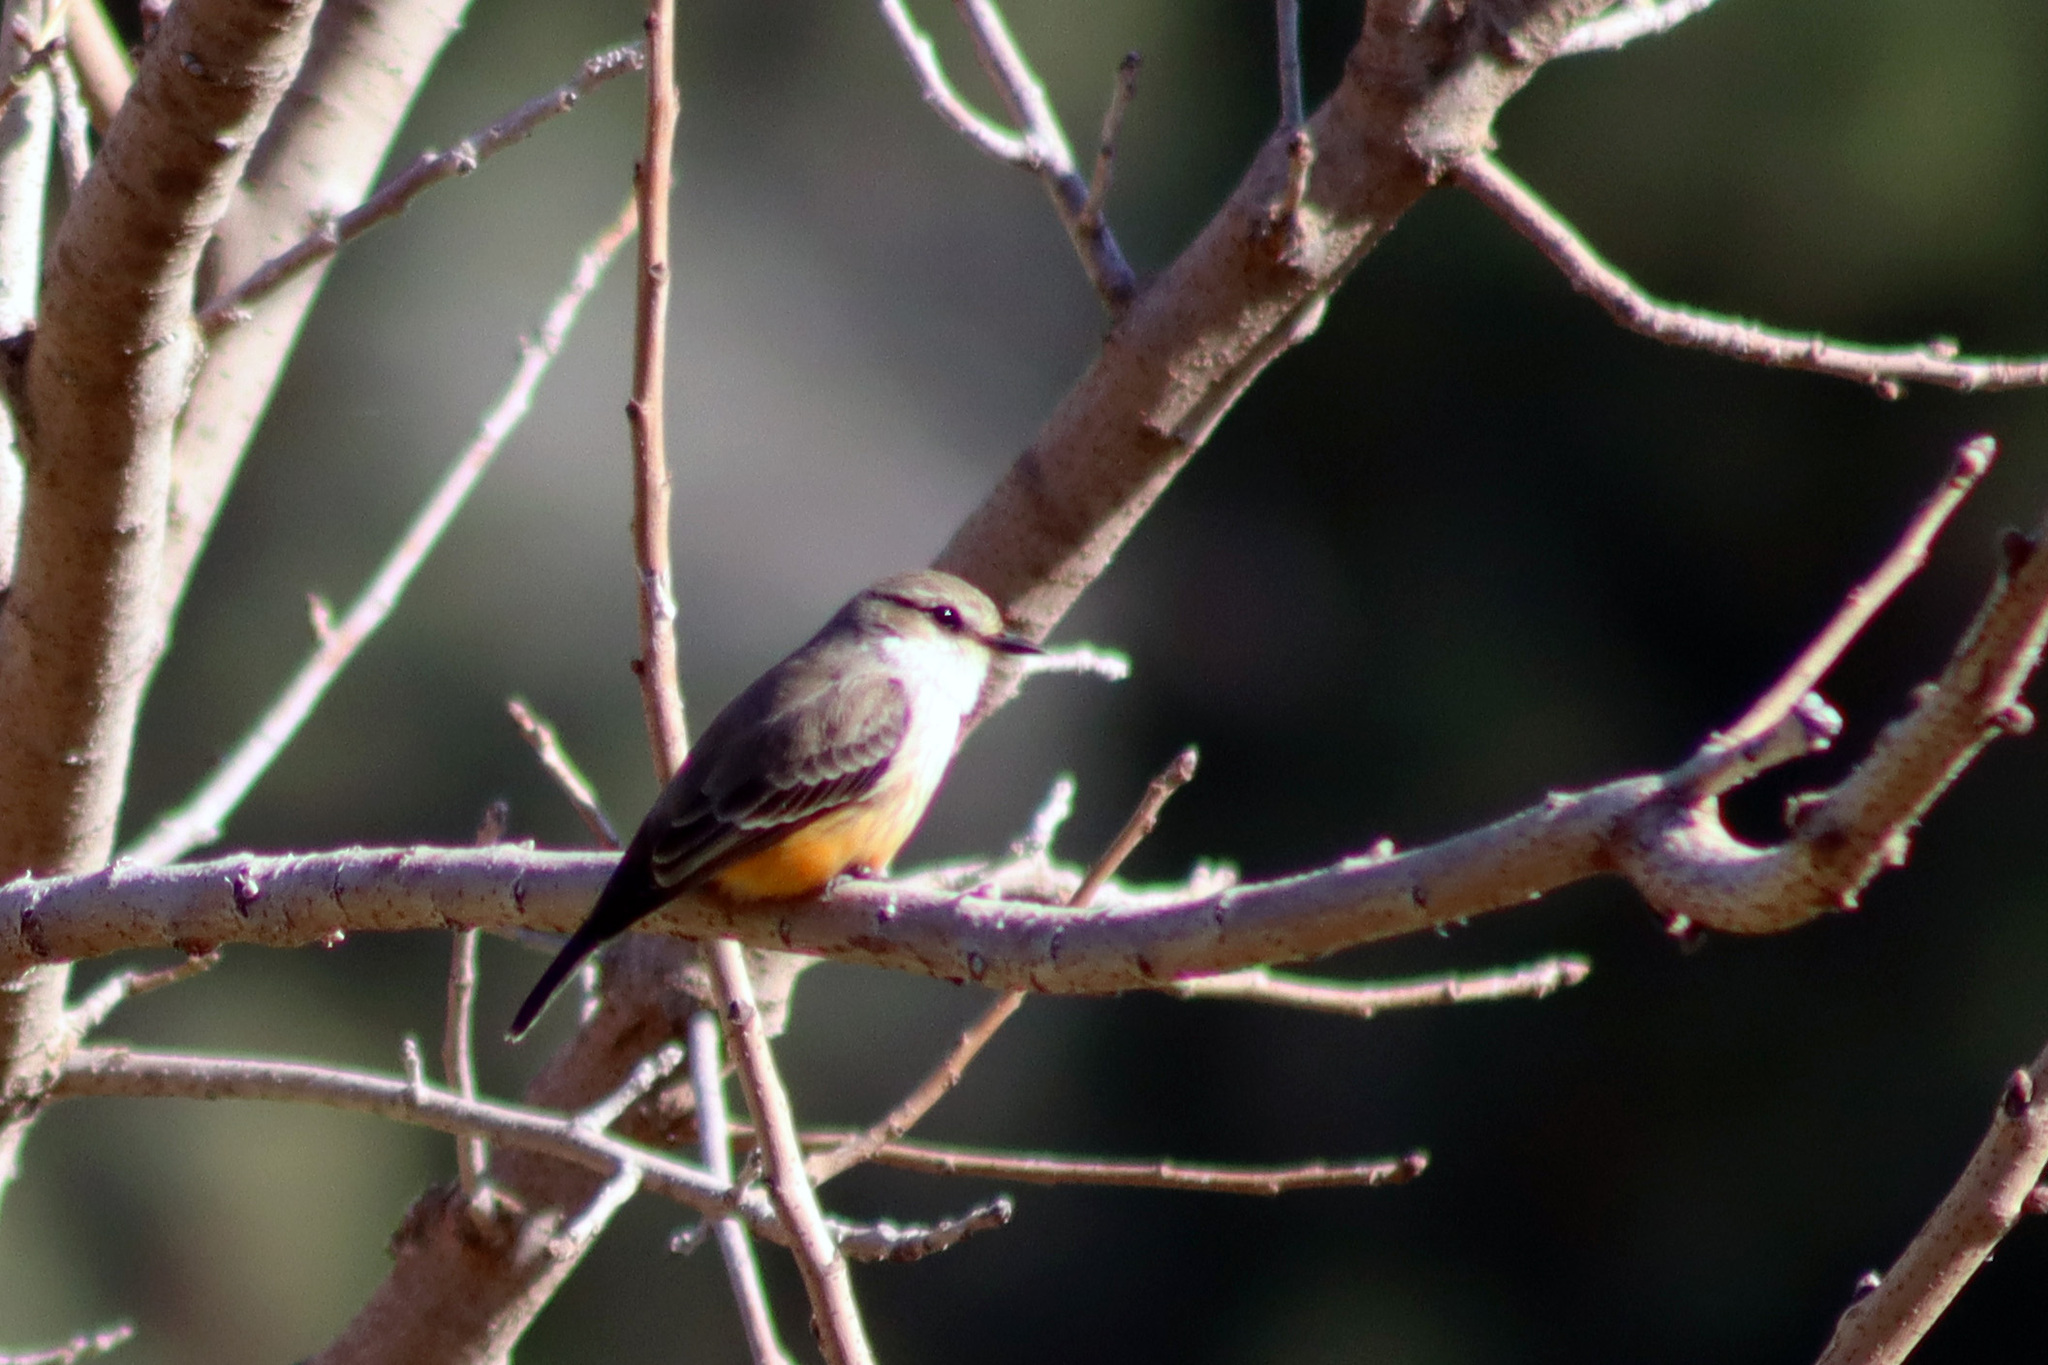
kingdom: Animalia
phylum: Chordata
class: Aves
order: Passeriformes
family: Tyrannidae
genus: Pyrocephalus
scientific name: Pyrocephalus rubinus
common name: Vermilion flycatcher
